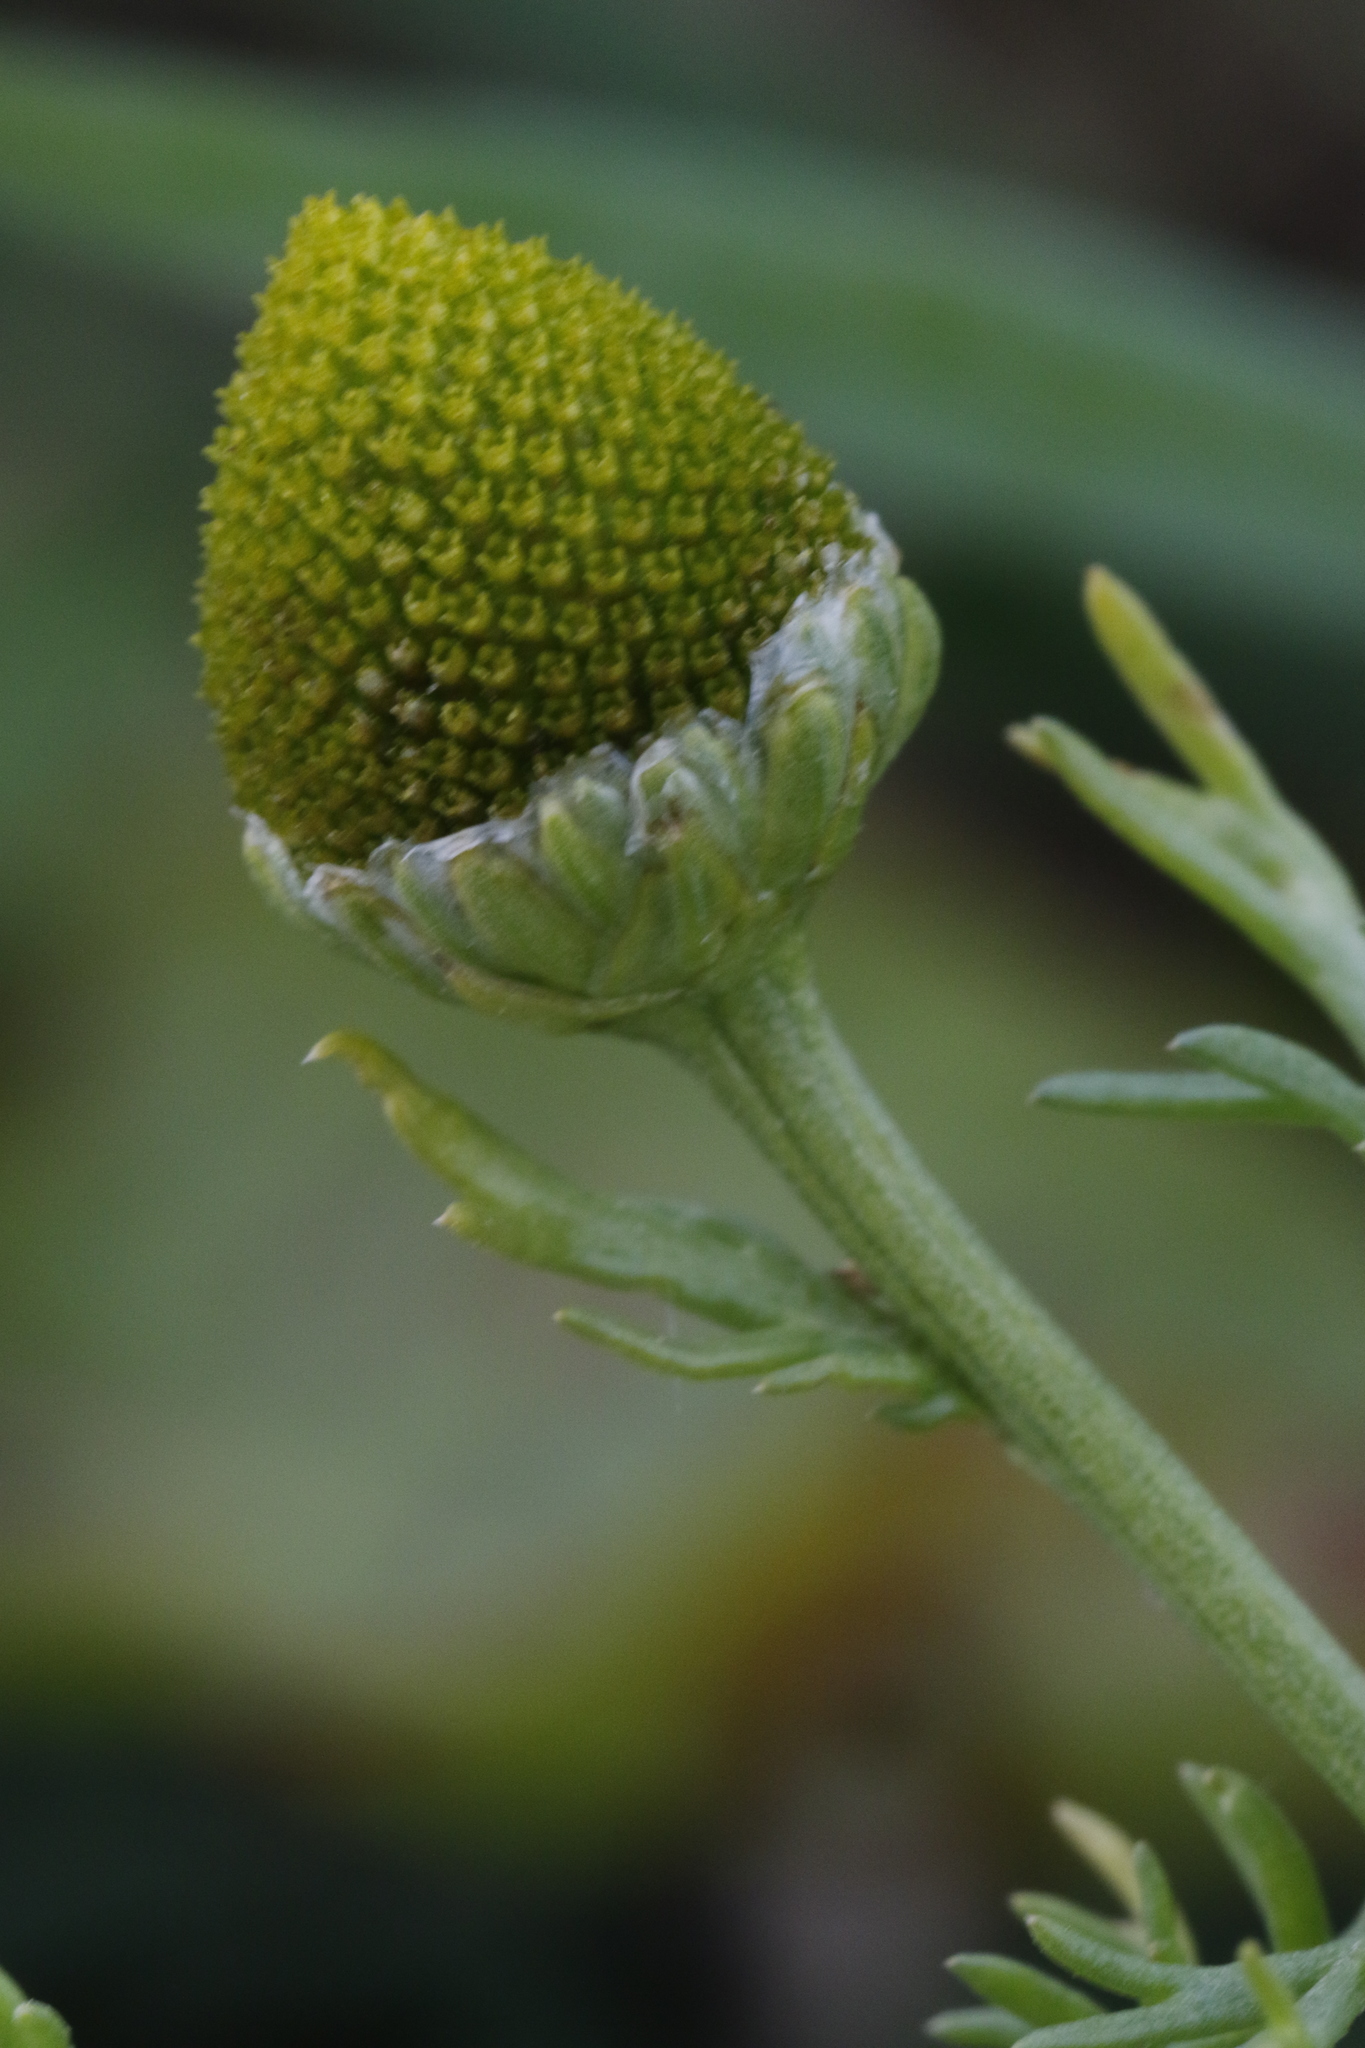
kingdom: Plantae
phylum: Tracheophyta
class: Magnoliopsida
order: Asterales
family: Asteraceae
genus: Matricaria
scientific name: Matricaria discoidea
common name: Disc mayweed
